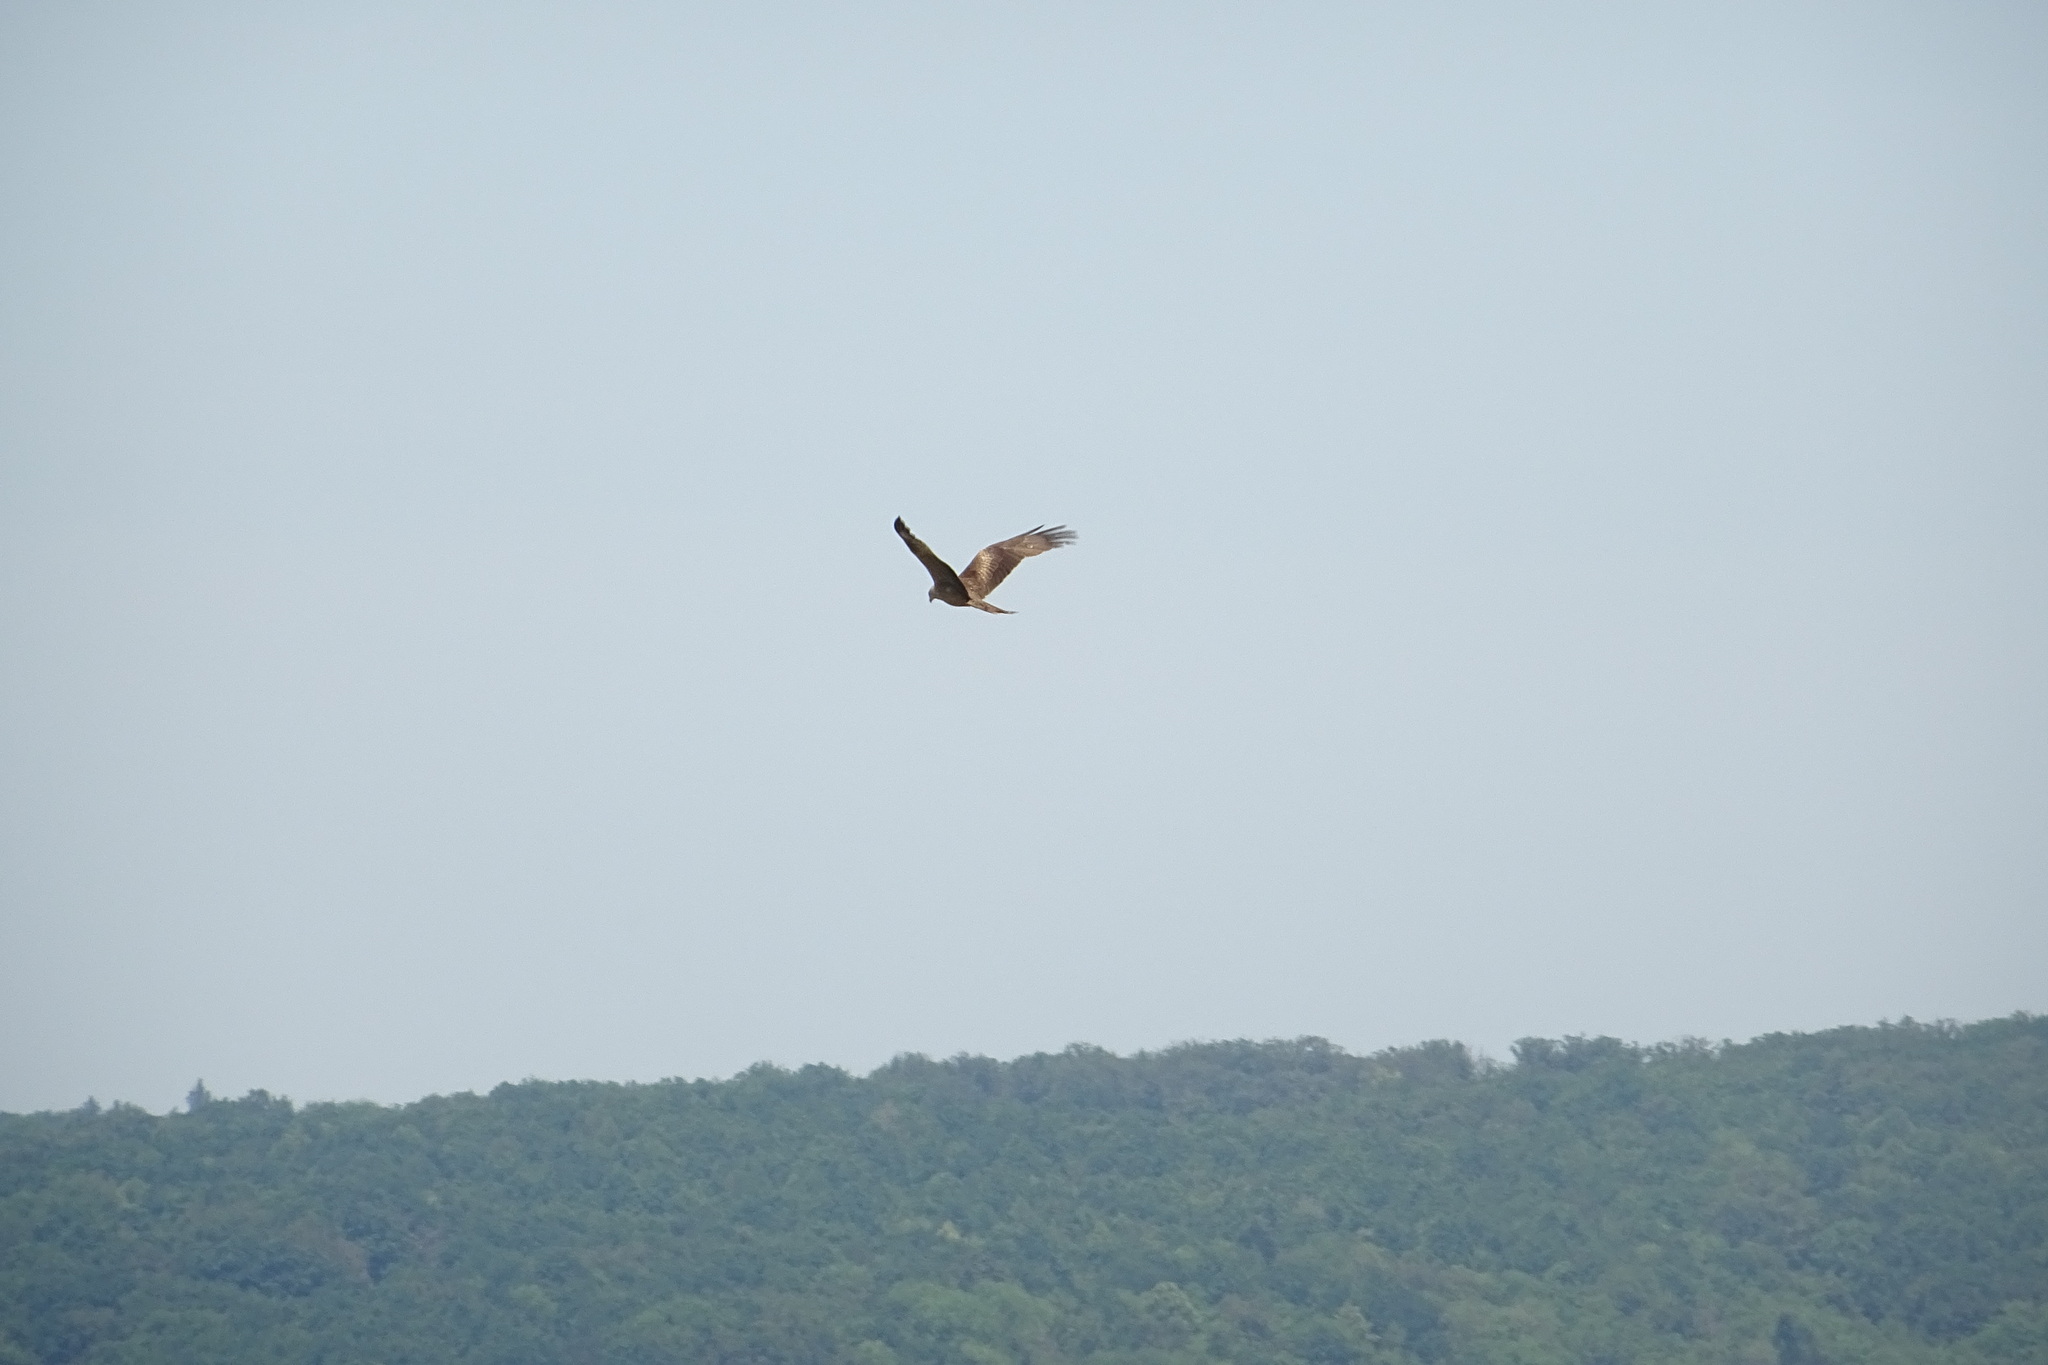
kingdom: Animalia
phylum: Chordata
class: Aves
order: Accipitriformes
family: Accipitridae
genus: Milvus
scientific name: Milvus migrans
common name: Black kite
